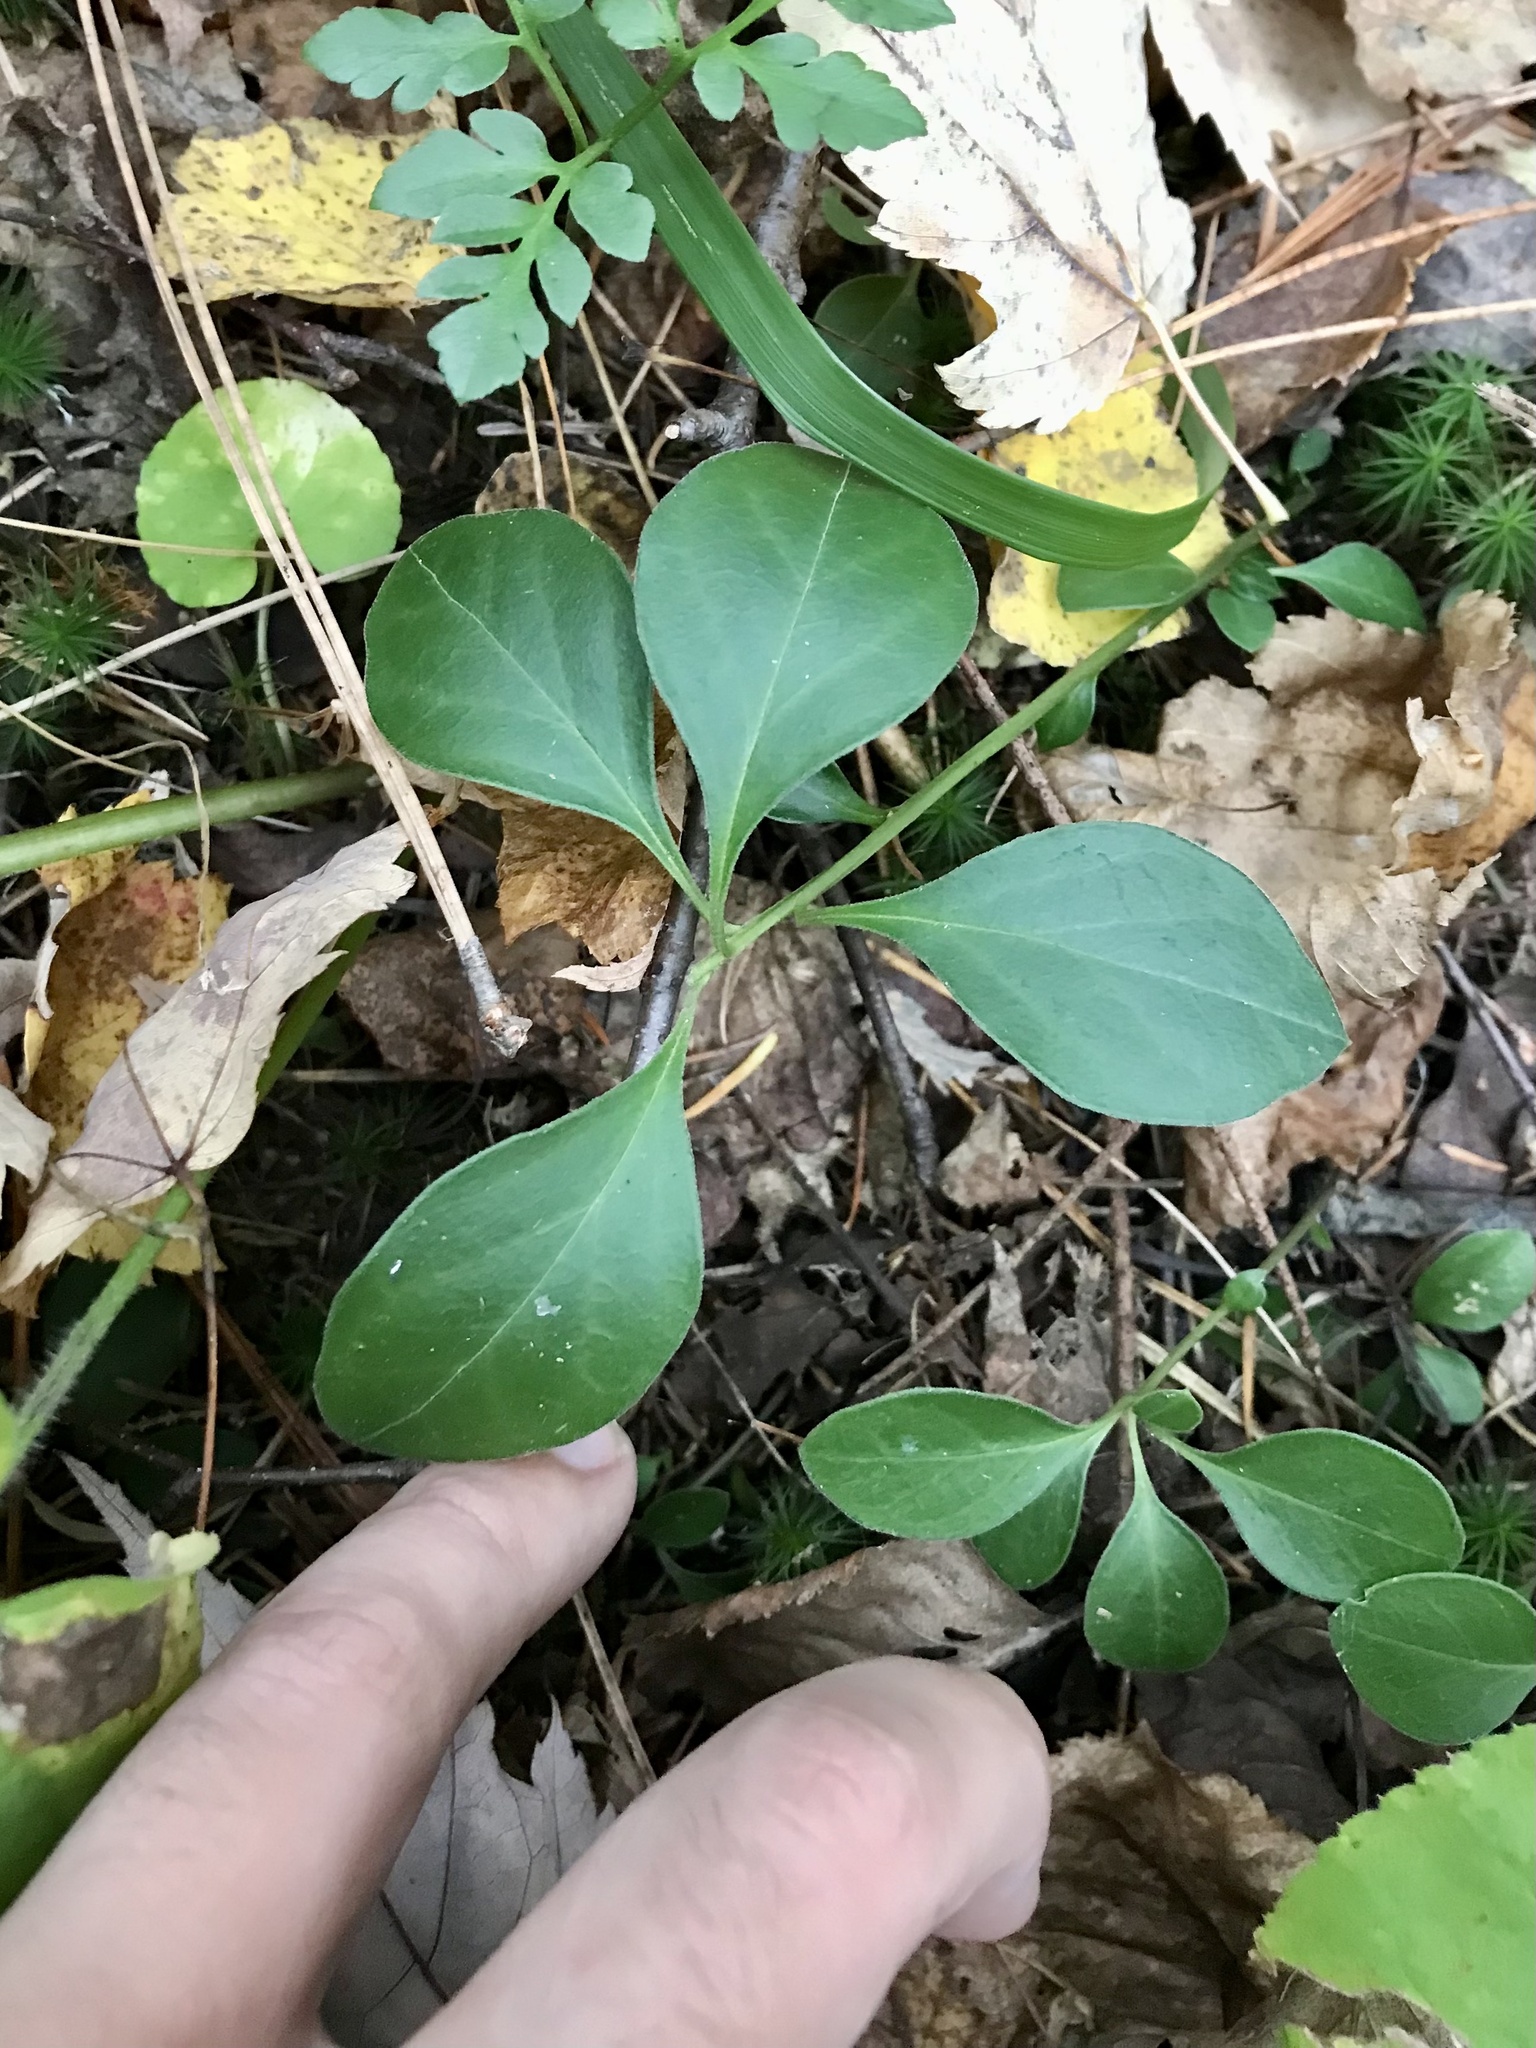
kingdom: Plantae
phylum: Tracheophyta
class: Magnoliopsida
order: Fabales
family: Polygalaceae
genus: Polygaloides
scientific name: Polygaloides paucifolia
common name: Bird-on-the-wing
